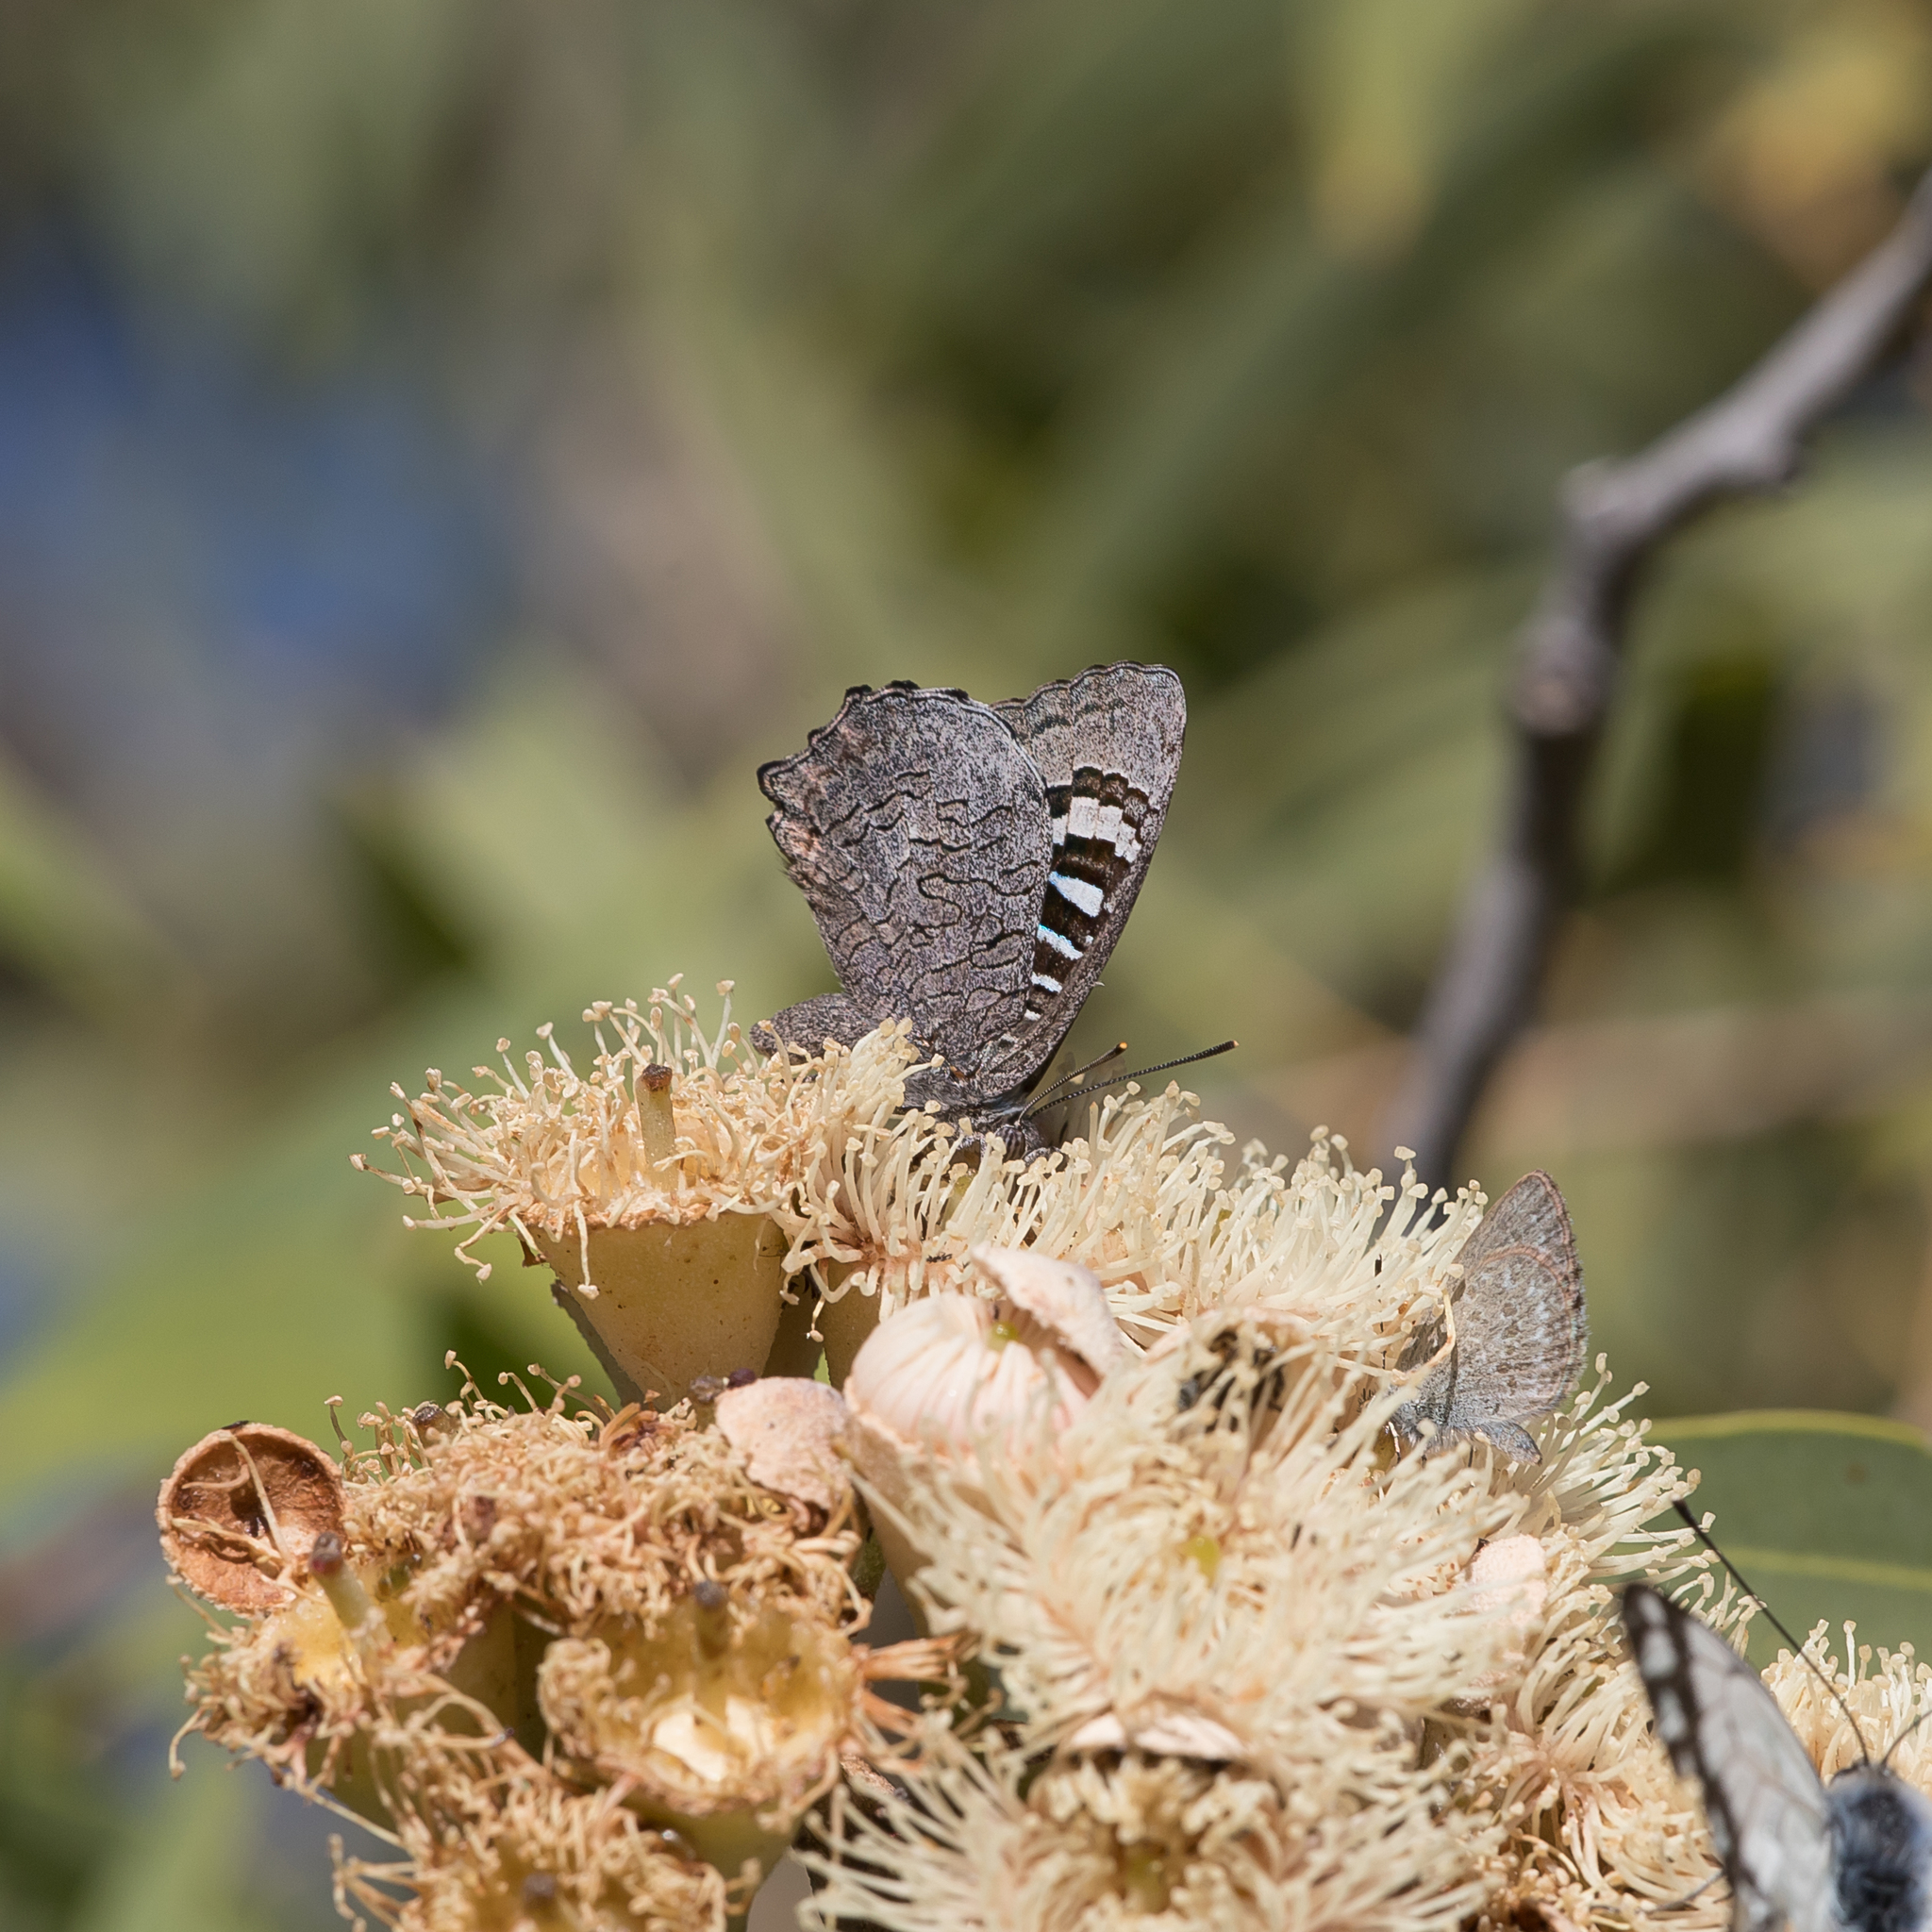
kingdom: Animalia
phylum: Arthropoda
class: Insecta
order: Lepidoptera
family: Lycaenidae
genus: Ogyris
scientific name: Ogyris amaryllis
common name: Satin azure
